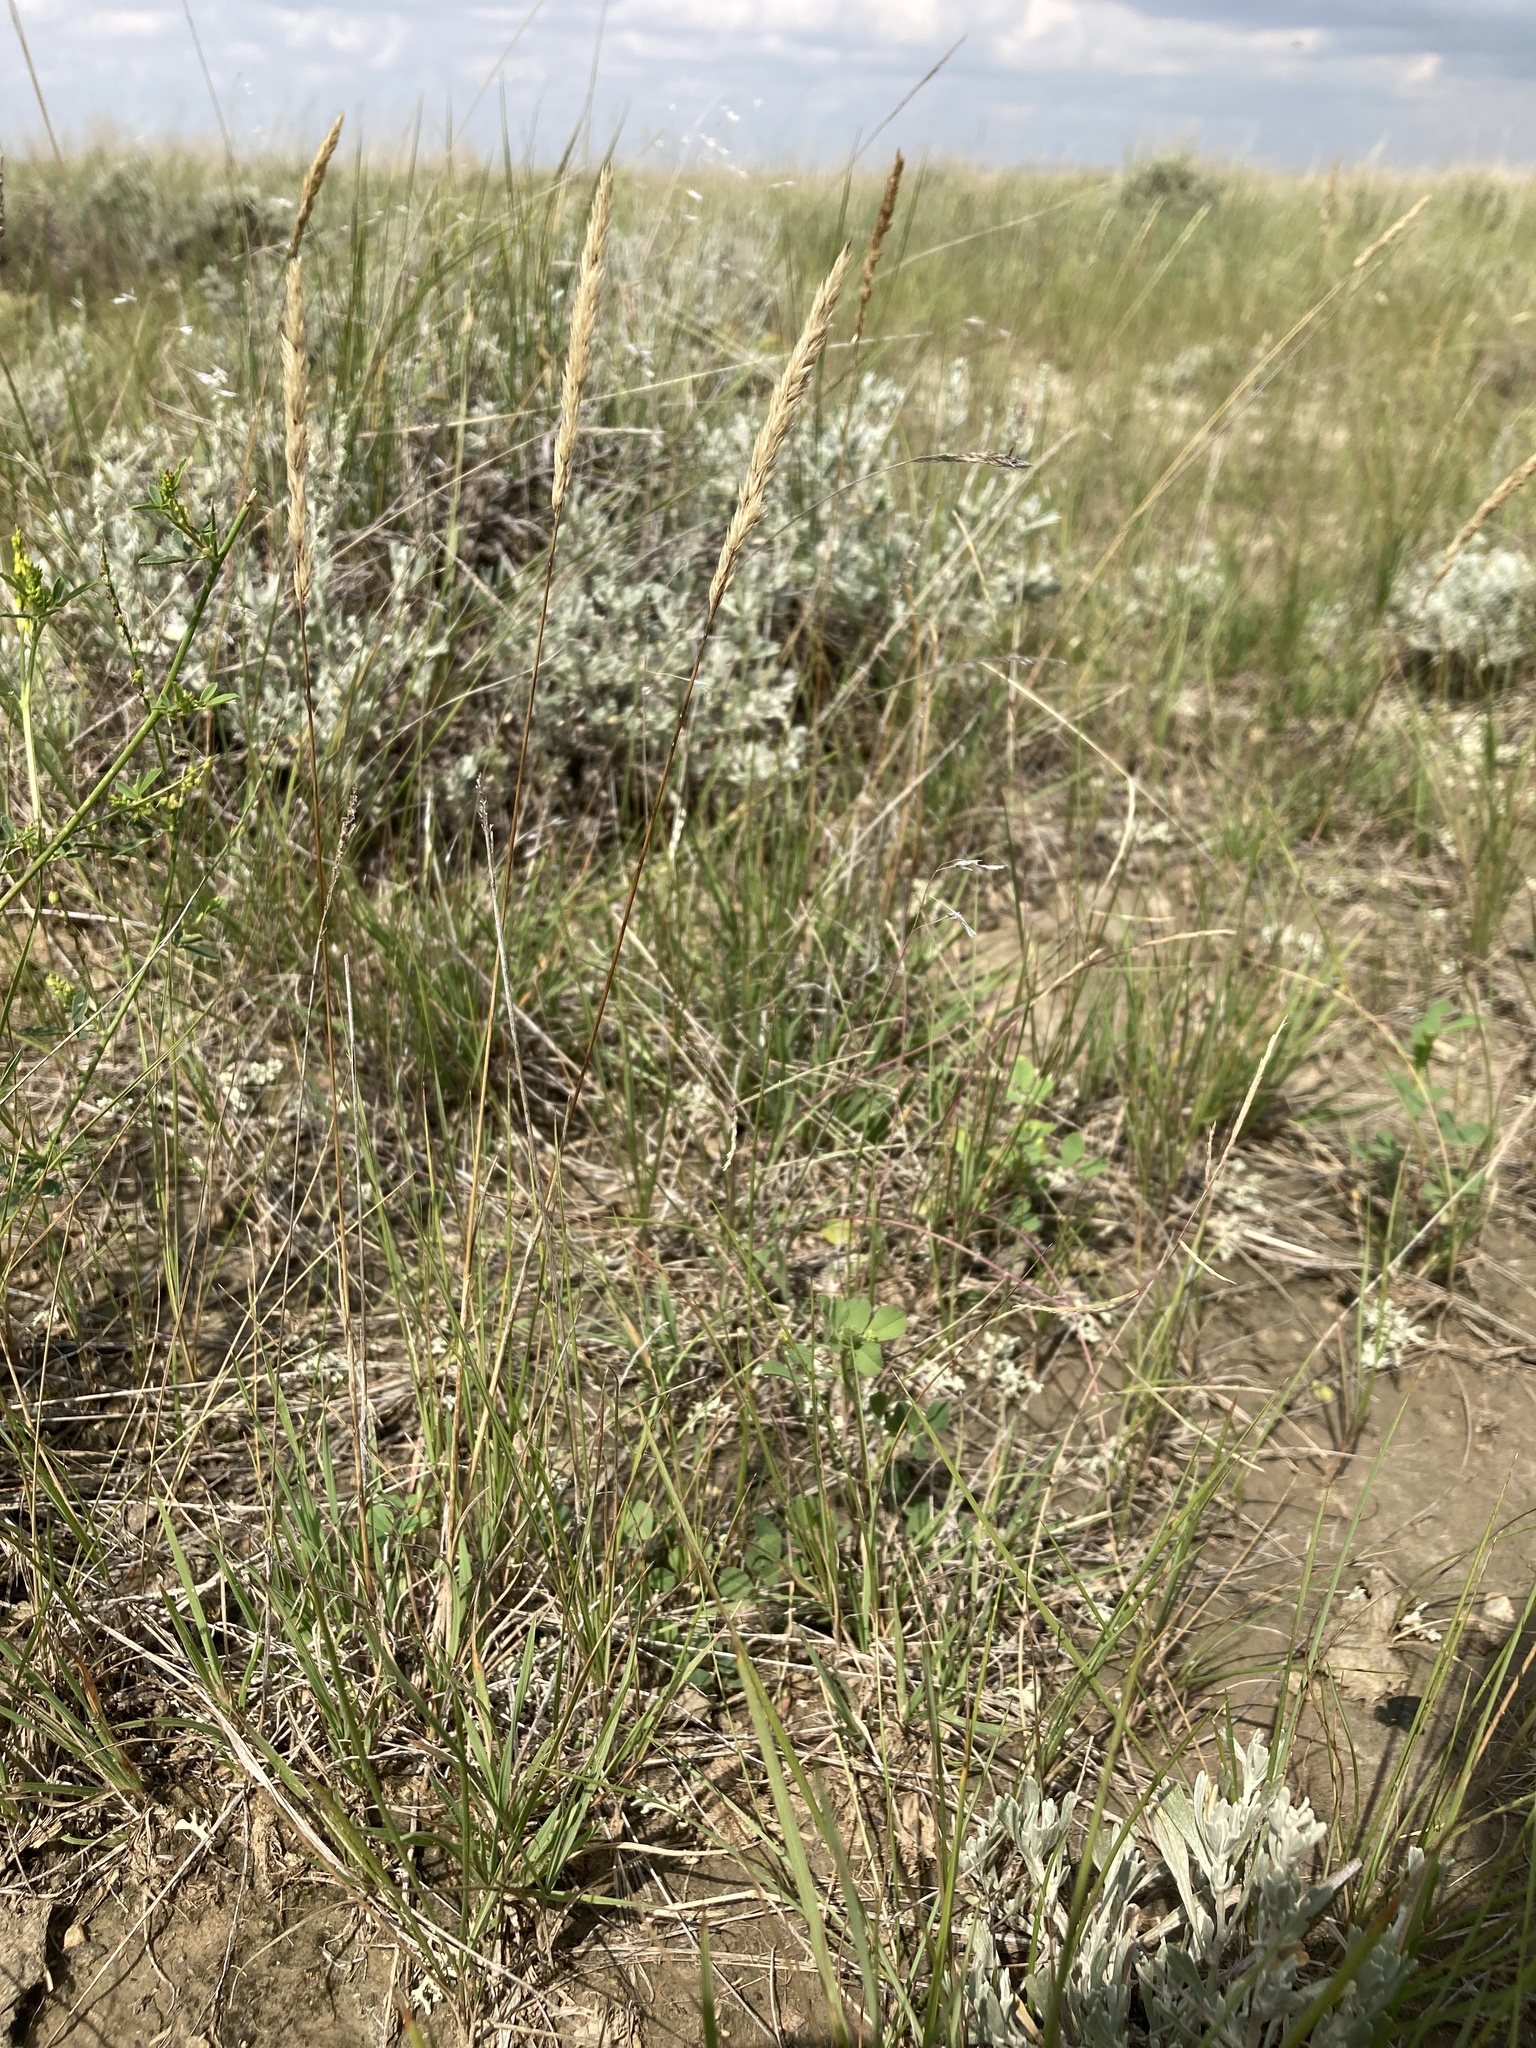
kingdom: Plantae
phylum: Tracheophyta
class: Liliopsida
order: Poales
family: Poaceae
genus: Koeleria
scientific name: Koeleria macrantha
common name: Crested hair-grass
